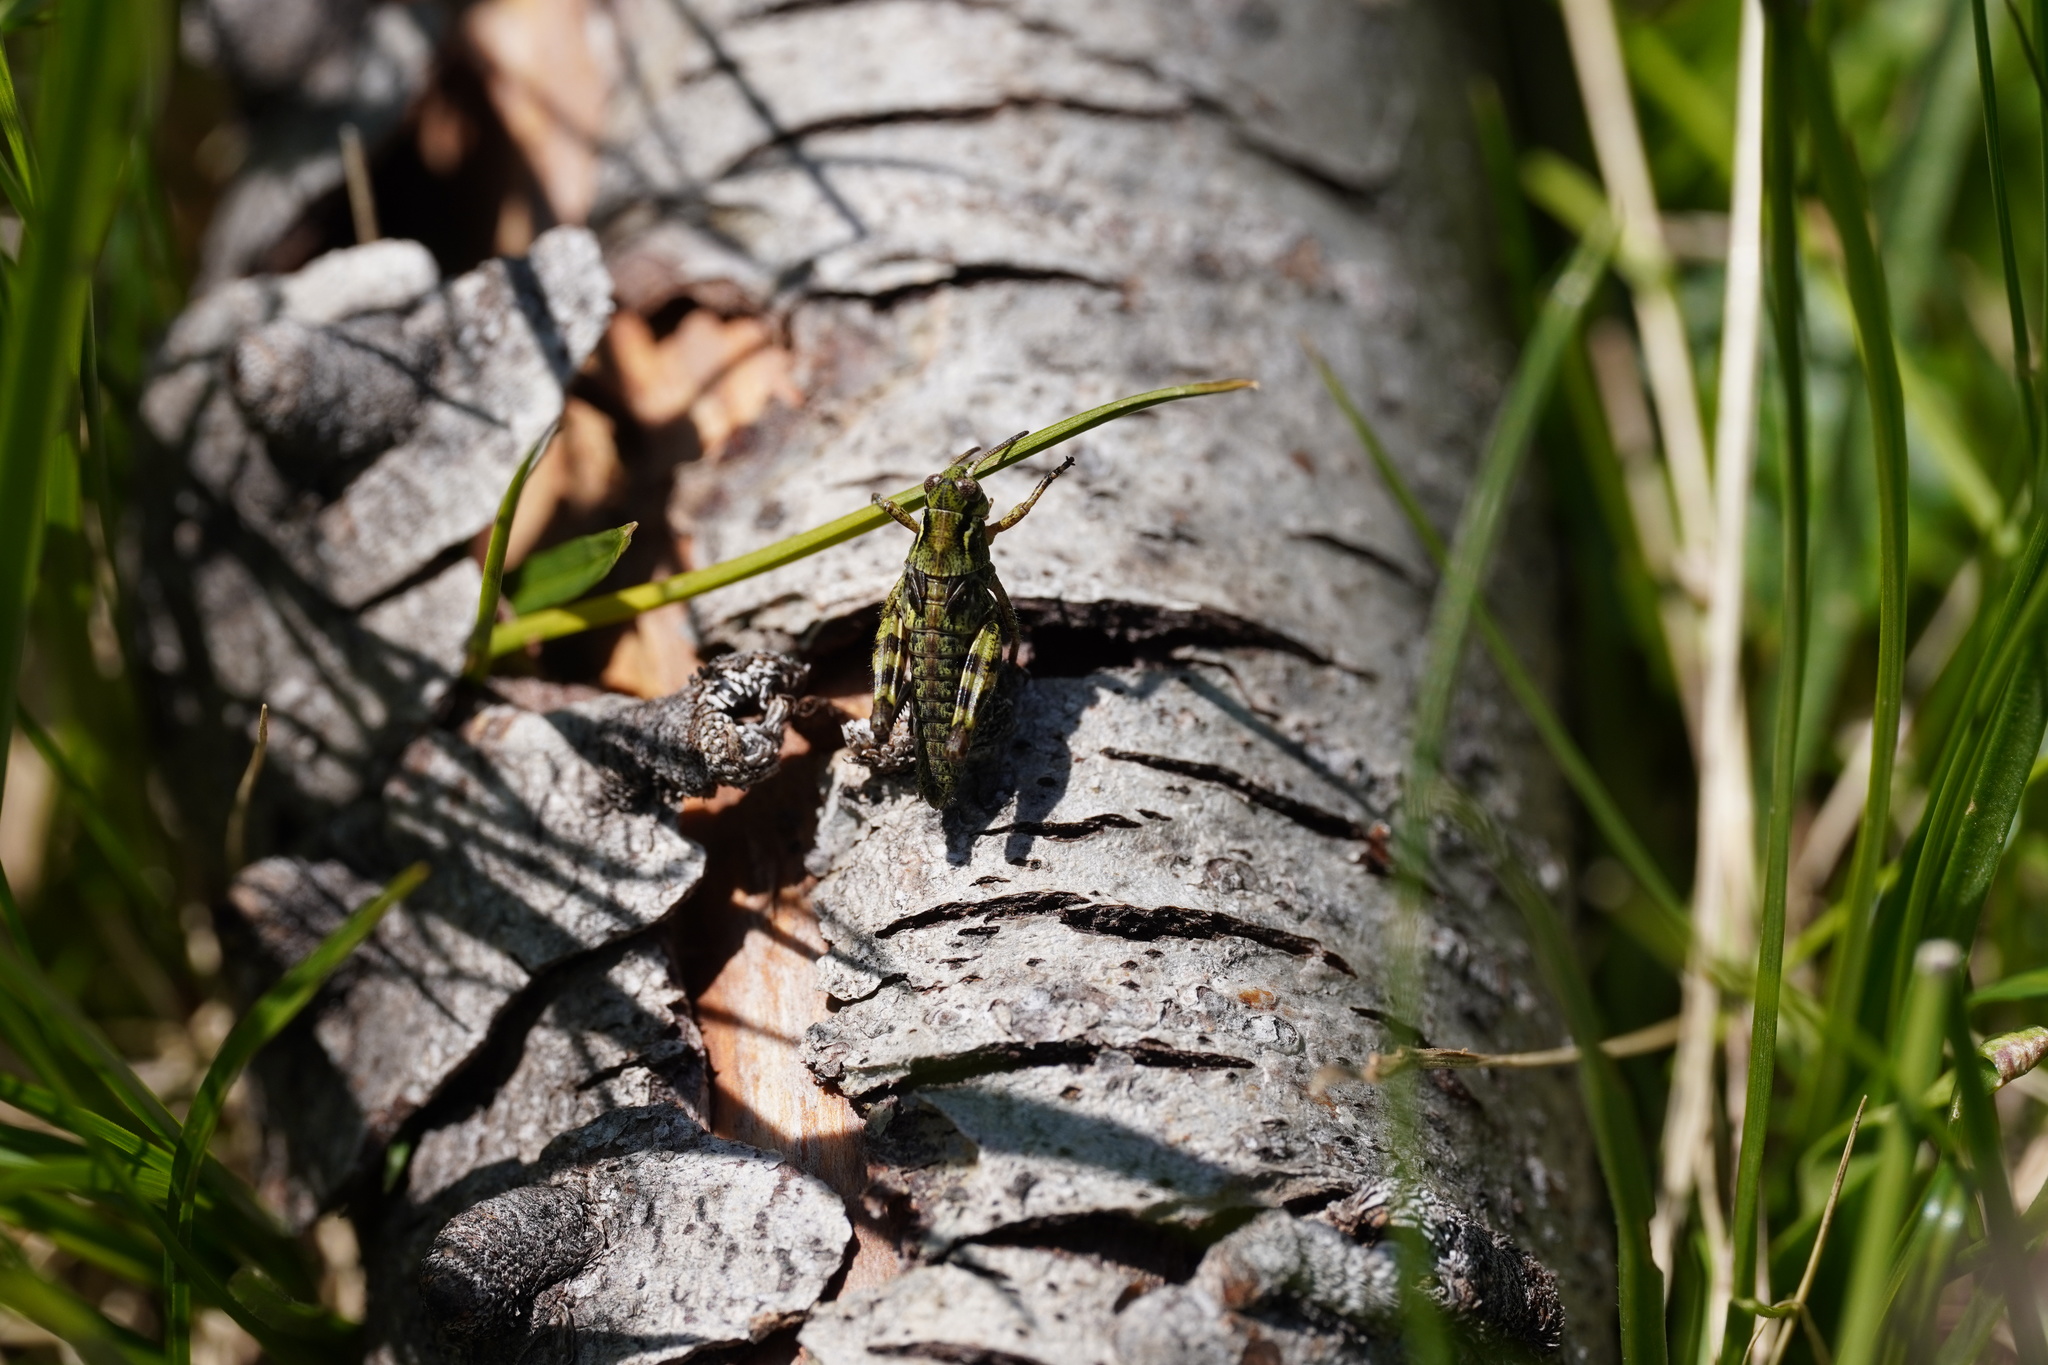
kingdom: Animalia
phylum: Arthropoda
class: Insecta
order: Orthoptera
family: Acrididae
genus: Bohemanella
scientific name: Bohemanella frigida
